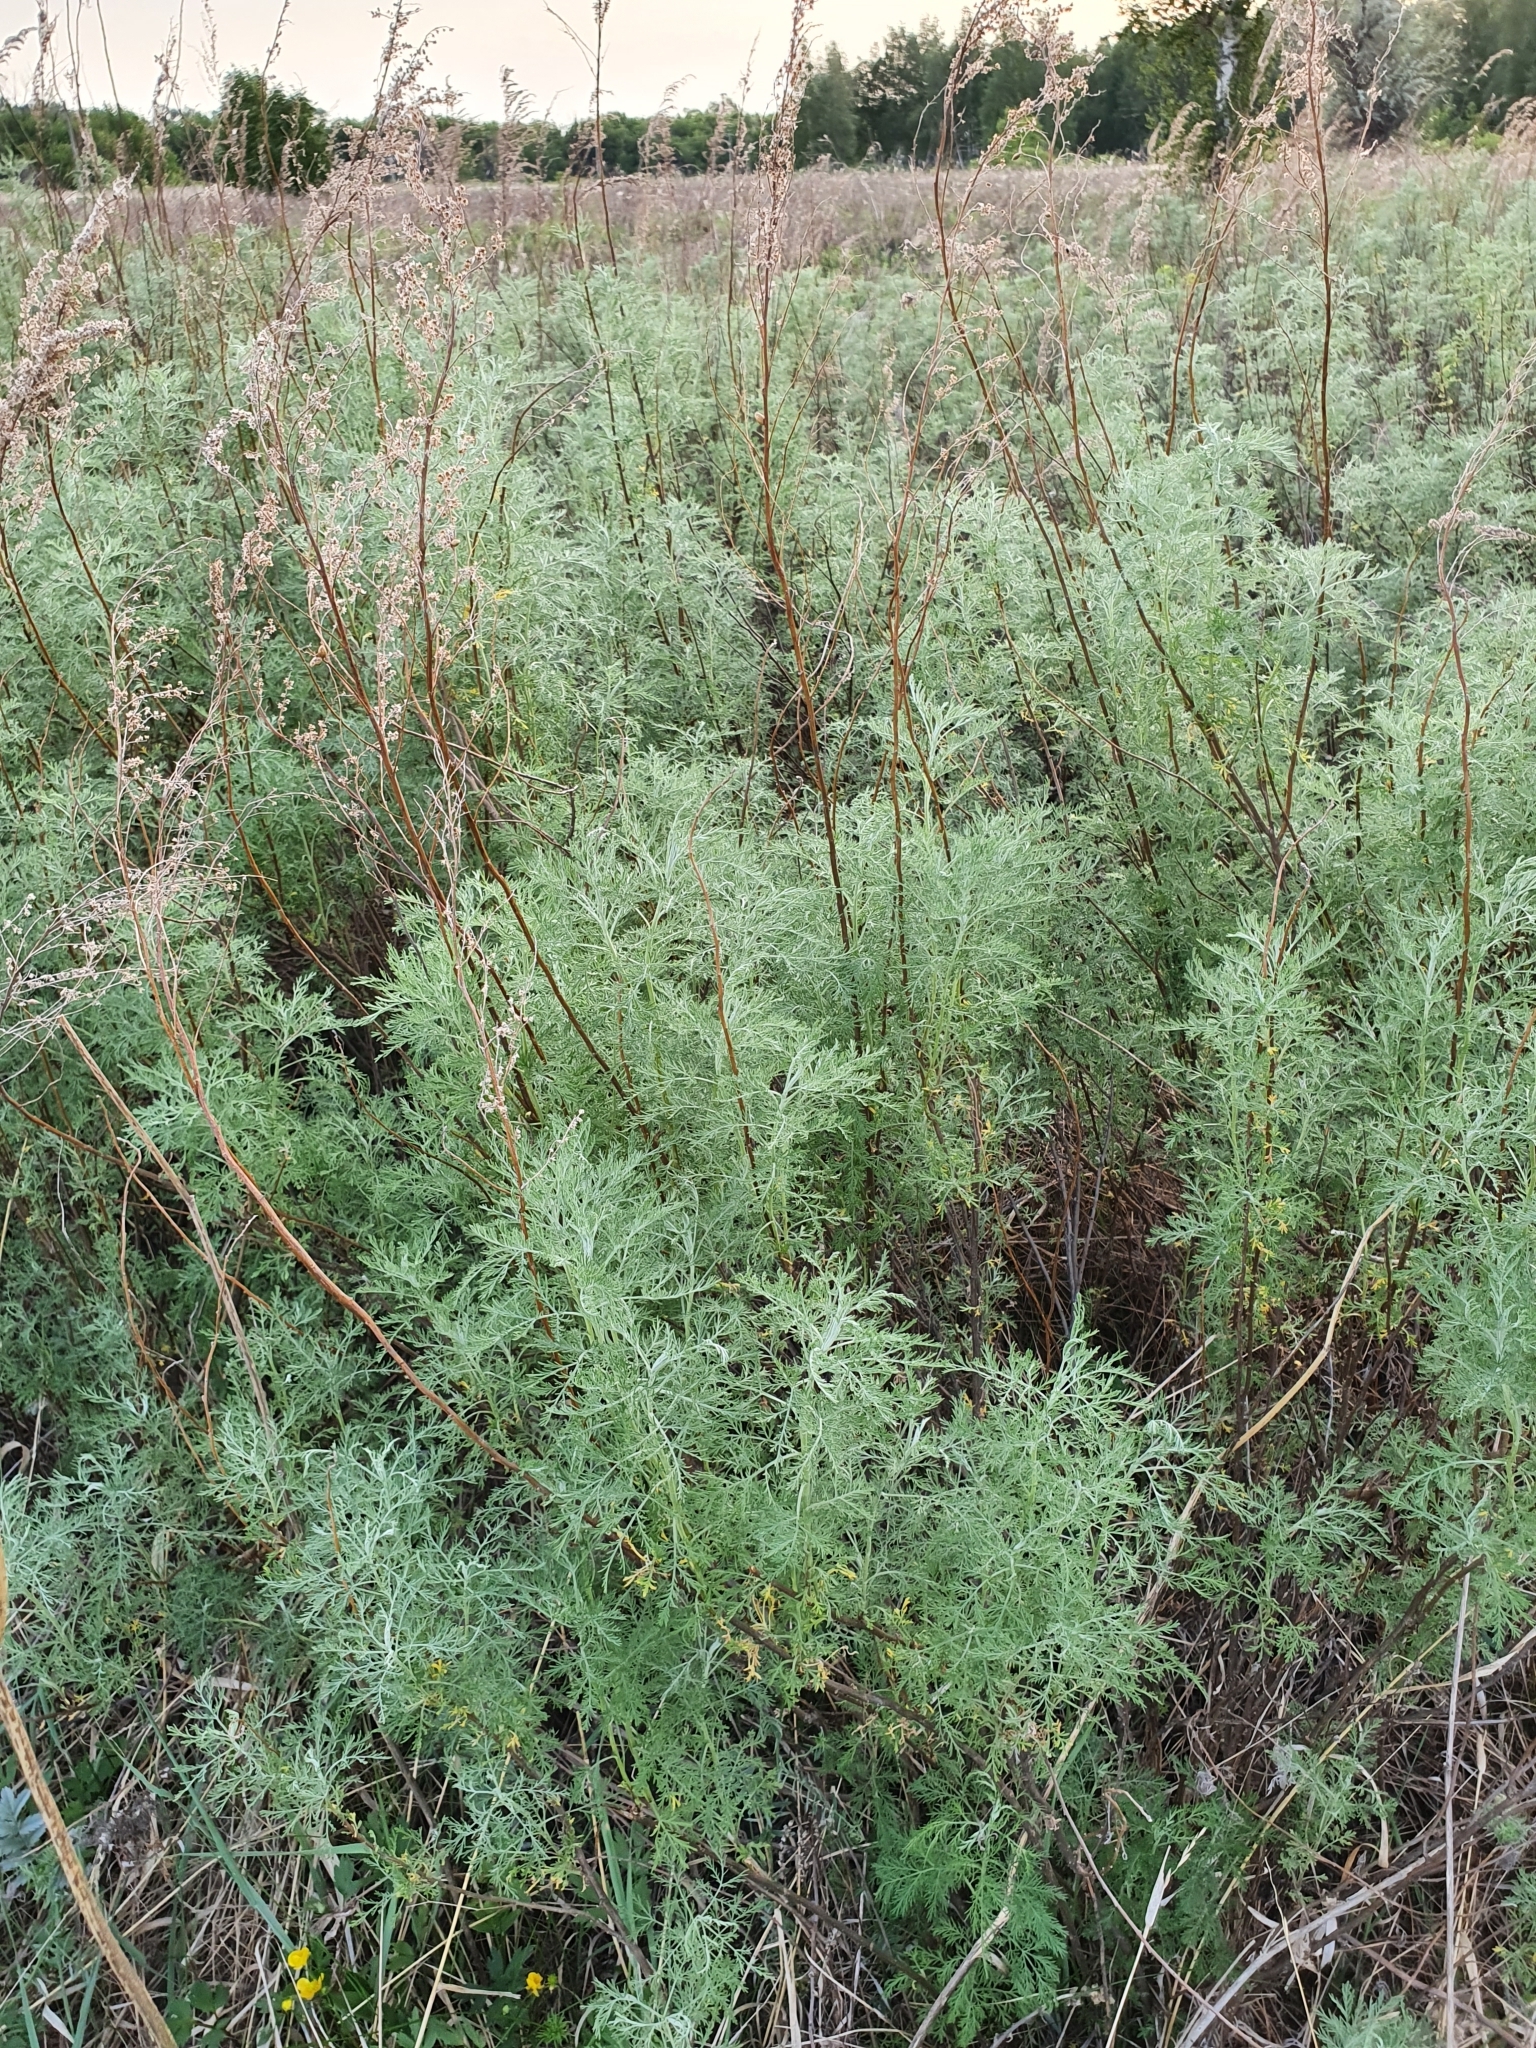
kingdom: Plantae
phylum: Tracheophyta
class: Magnoliopsida
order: Asterales
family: Asteraceae
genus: Artemisia
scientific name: Artemisia abrotanum
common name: Southernwood
